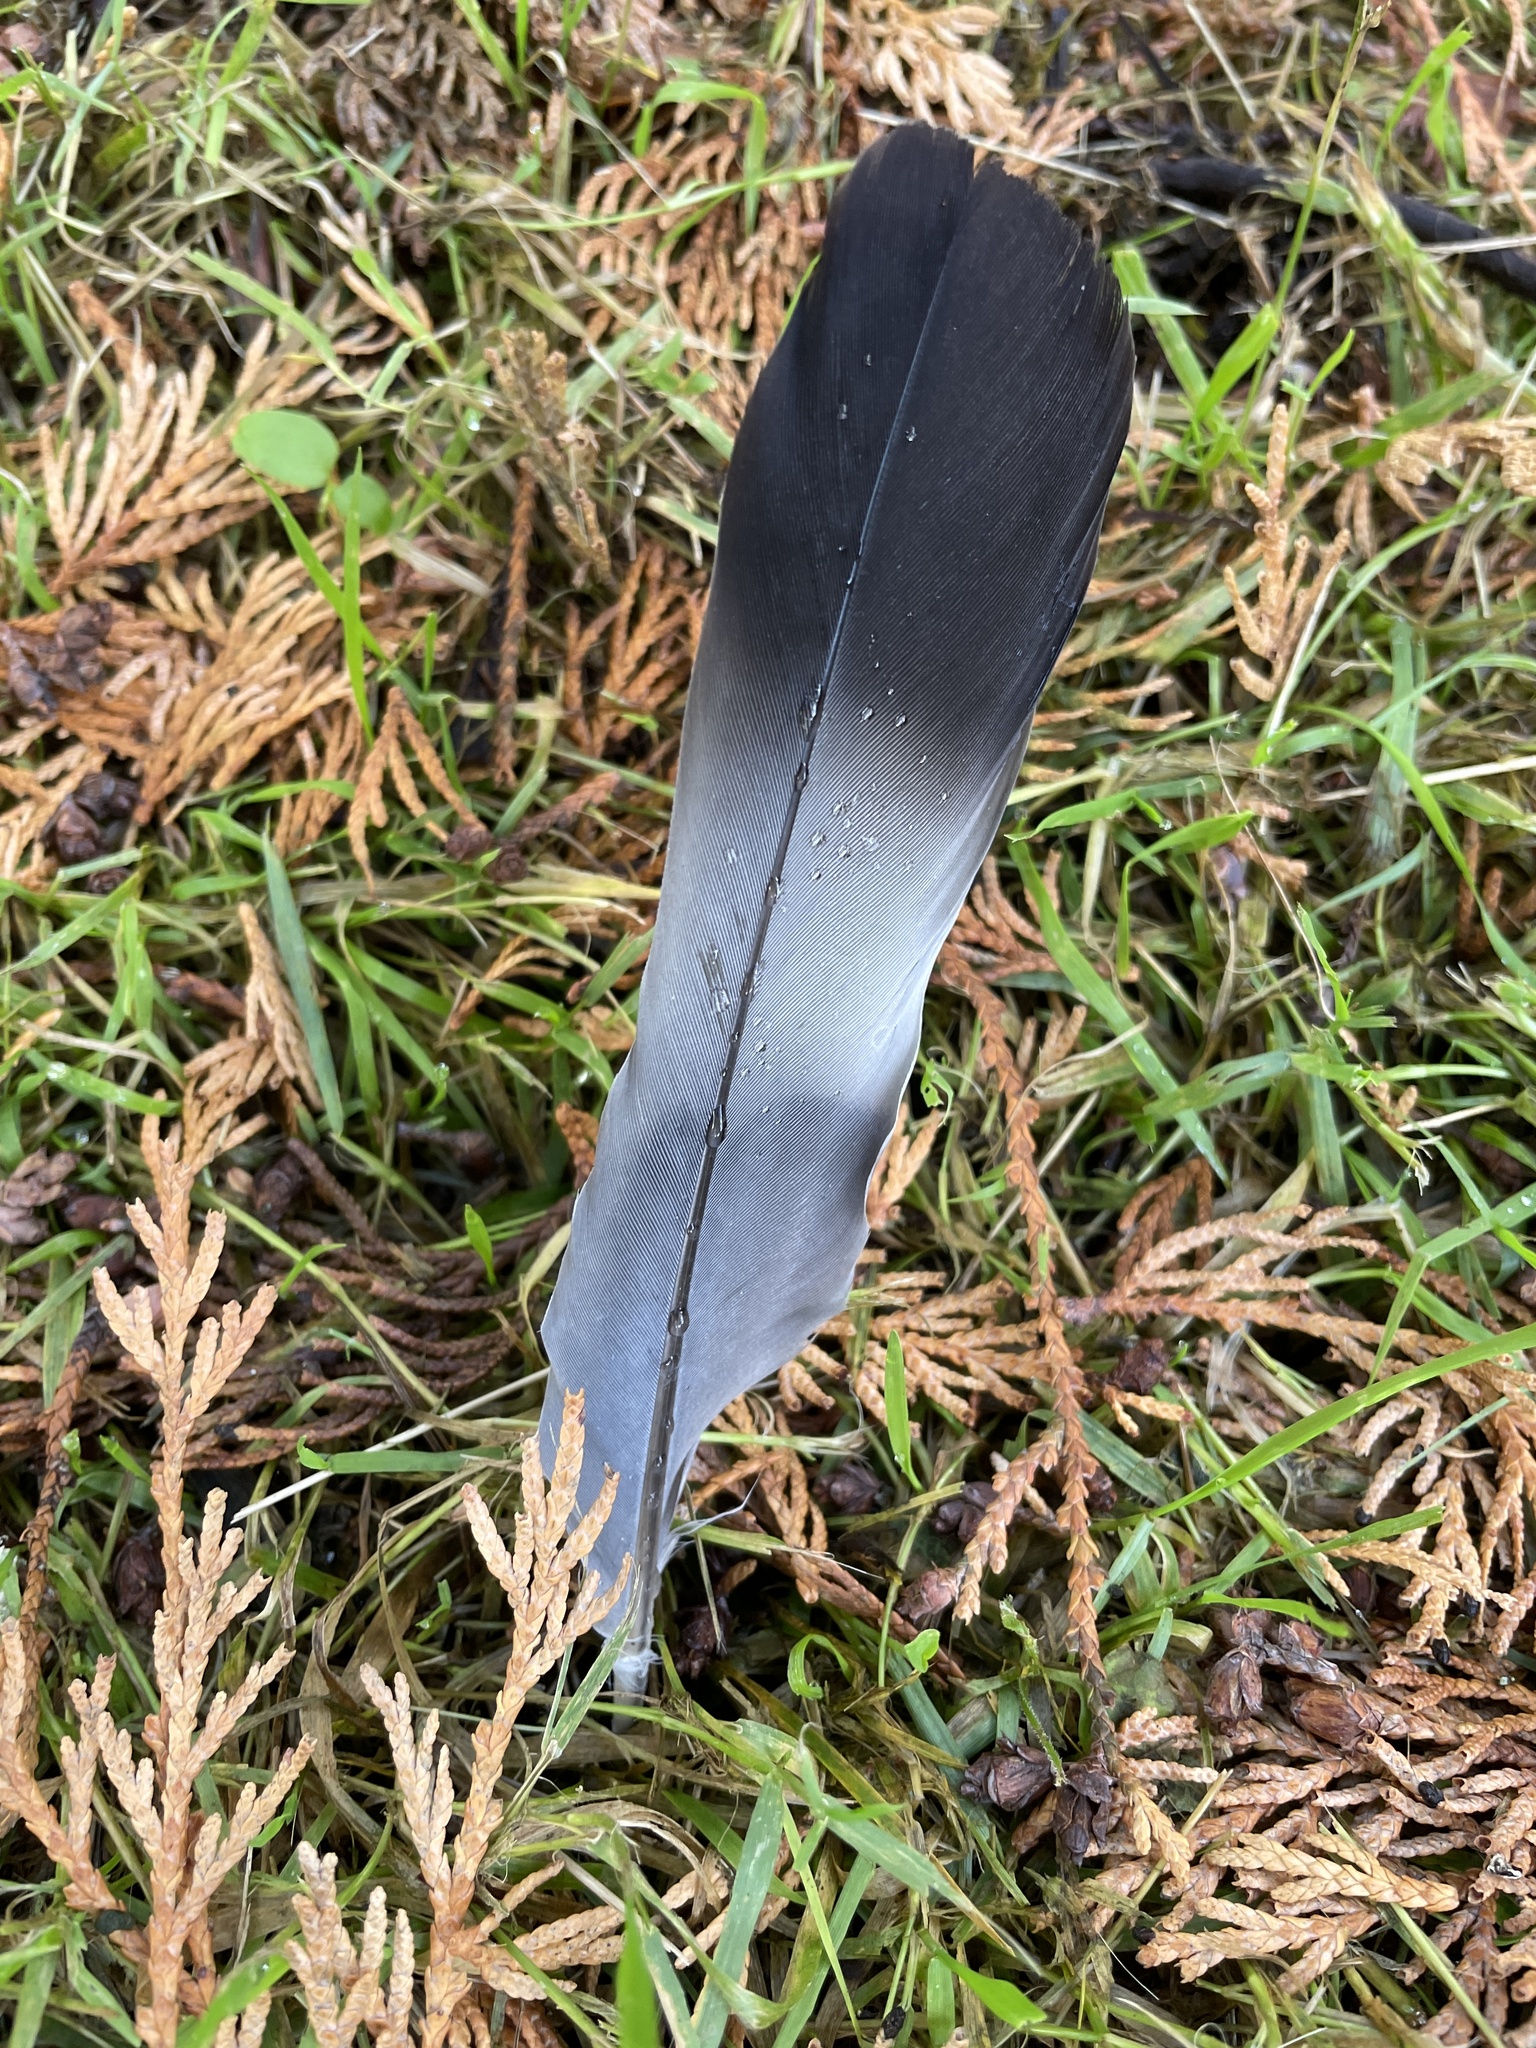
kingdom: Animalia
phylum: Chordata
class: Aves
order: Columbiformes
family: Columbidae
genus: Columba
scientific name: Columba palumbus
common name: Common wood pigeon
